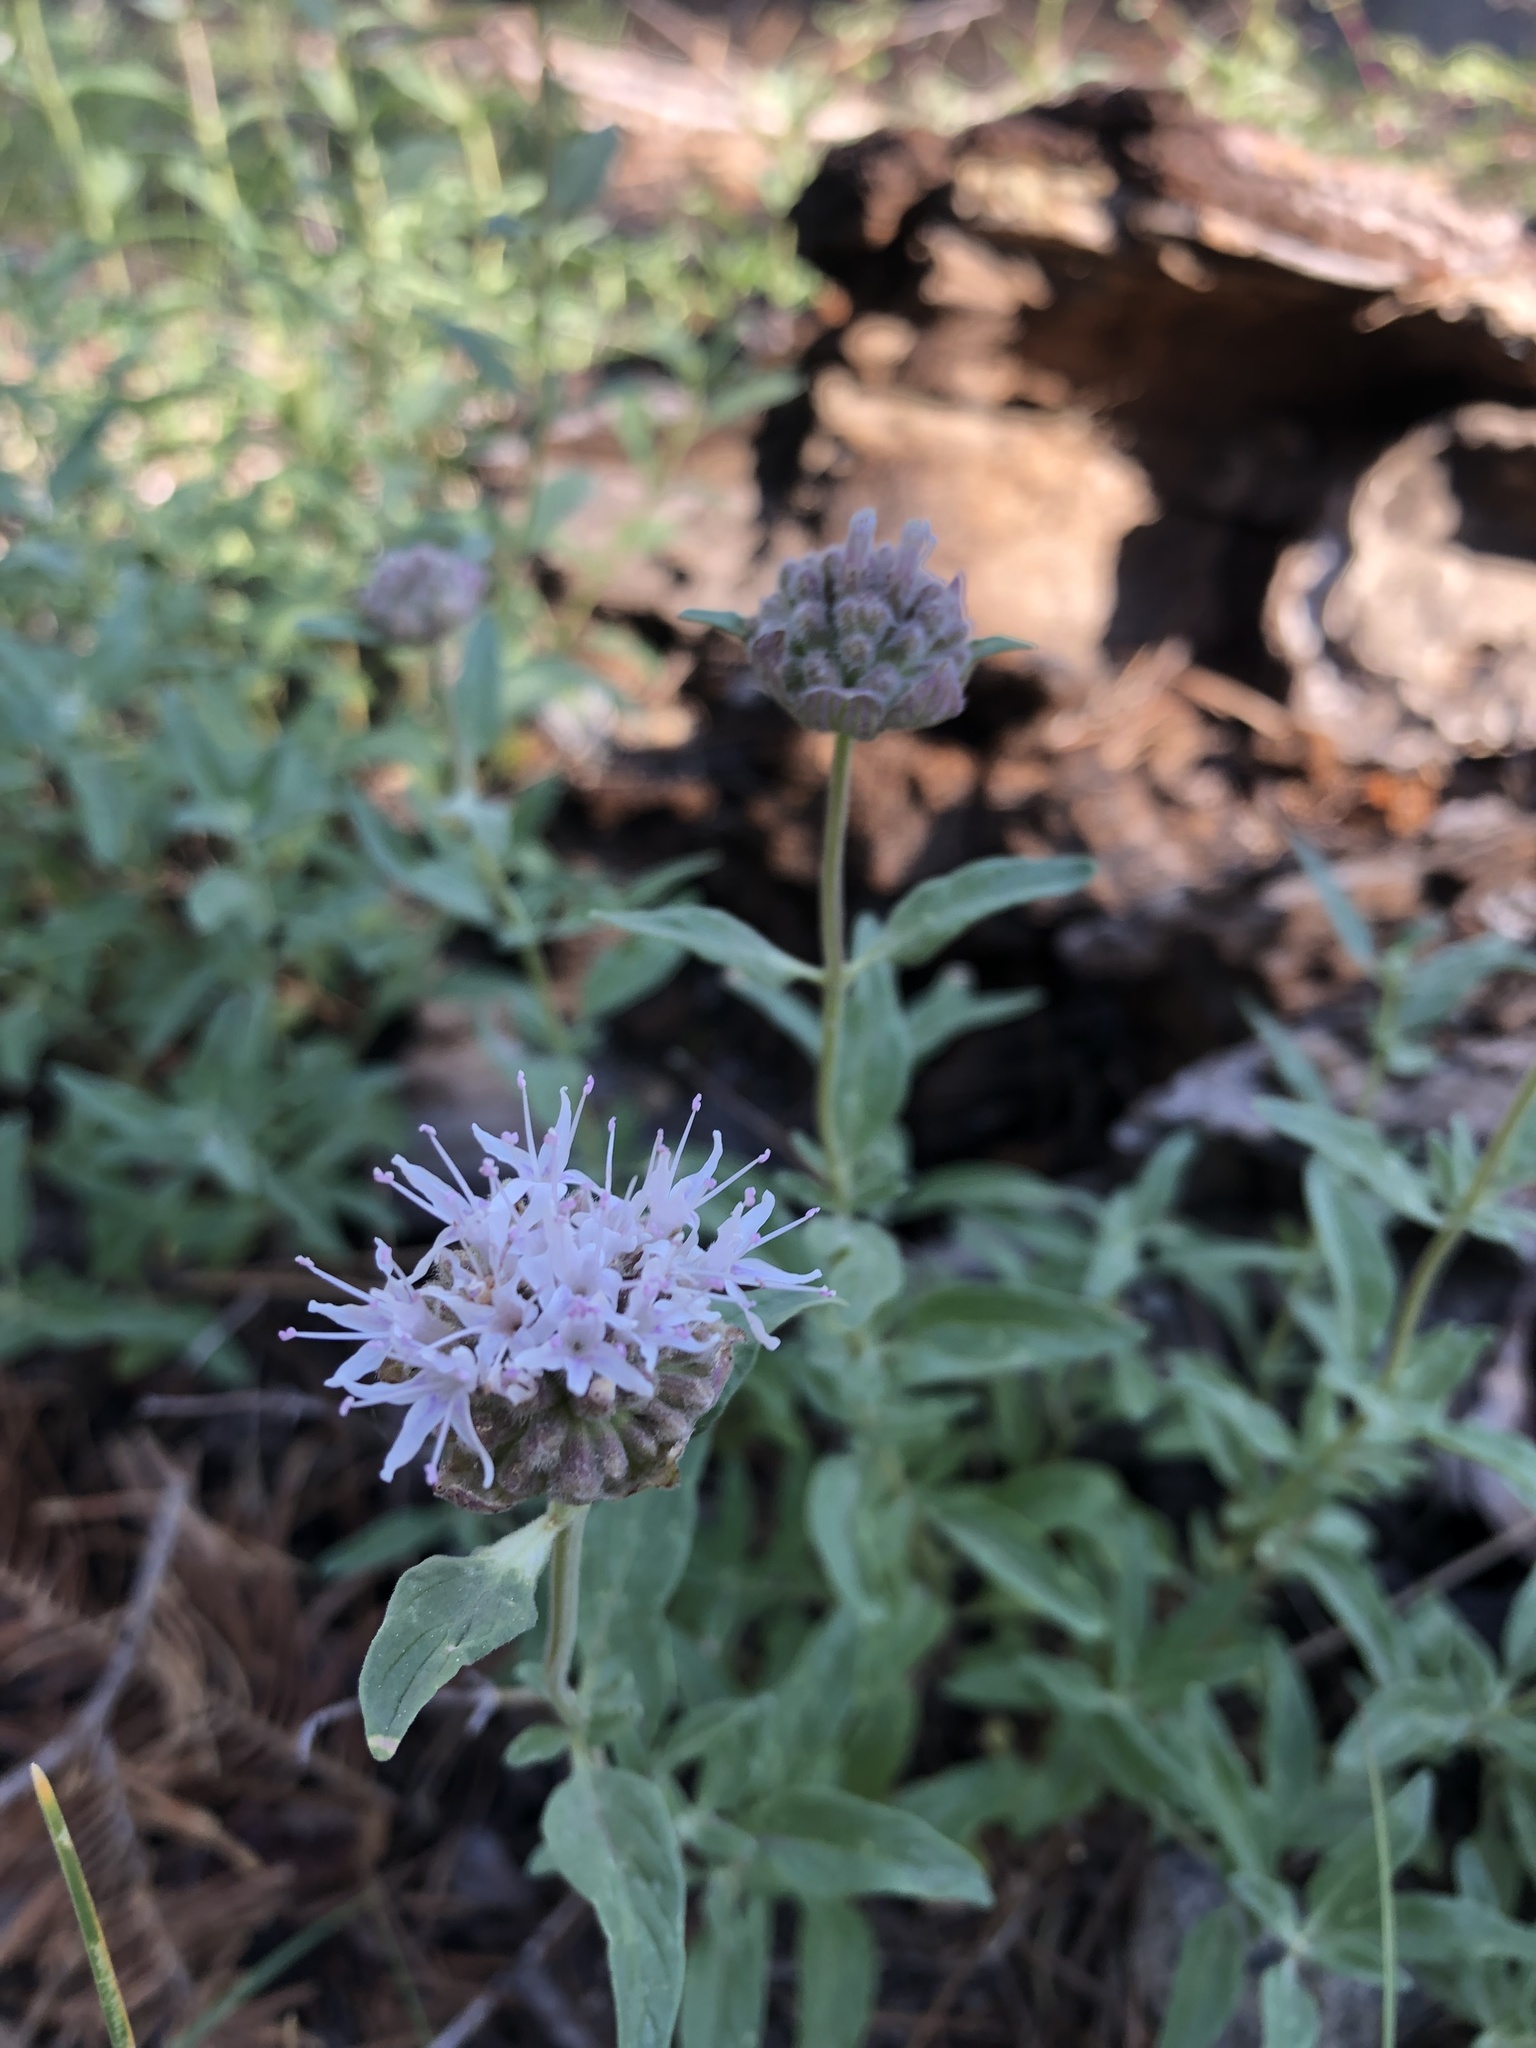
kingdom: Plantae
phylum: Tracheophyta
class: Magnoliopsida
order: Lamiales
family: Lamiaceae
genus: Monardella
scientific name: Monardella odoratissima
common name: Pacific monardella
